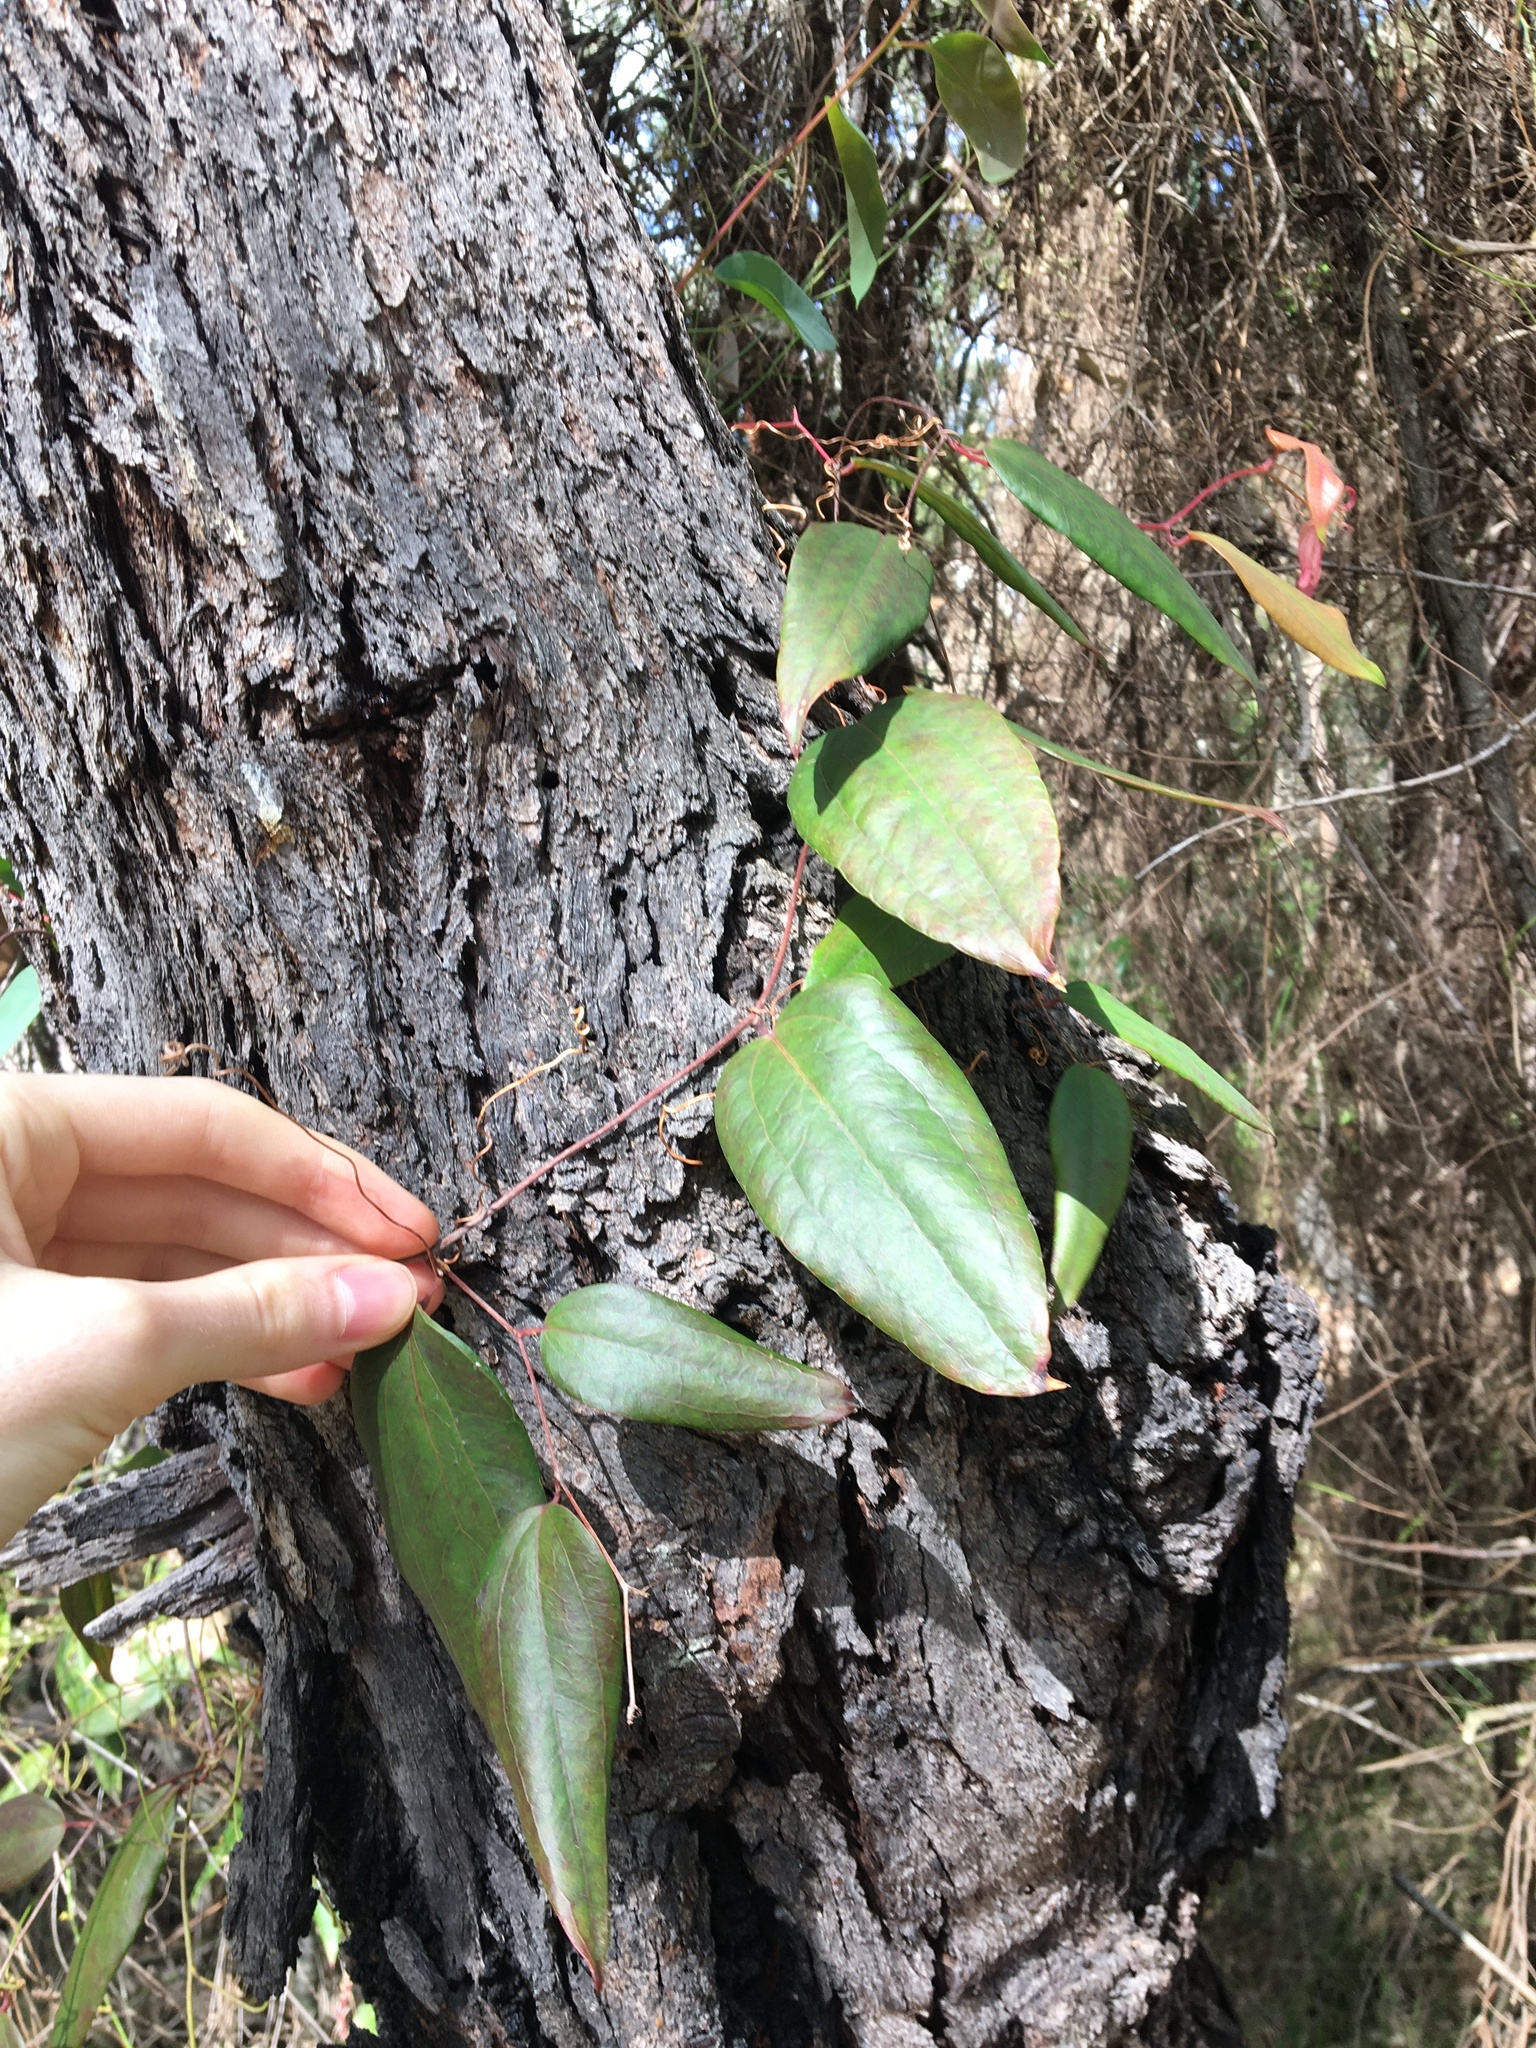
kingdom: Plantae
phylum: Tracheophyta
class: Liliopsida
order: Liliales
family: Smilacaceae
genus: Smilax
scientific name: Smilax glyciphylla
